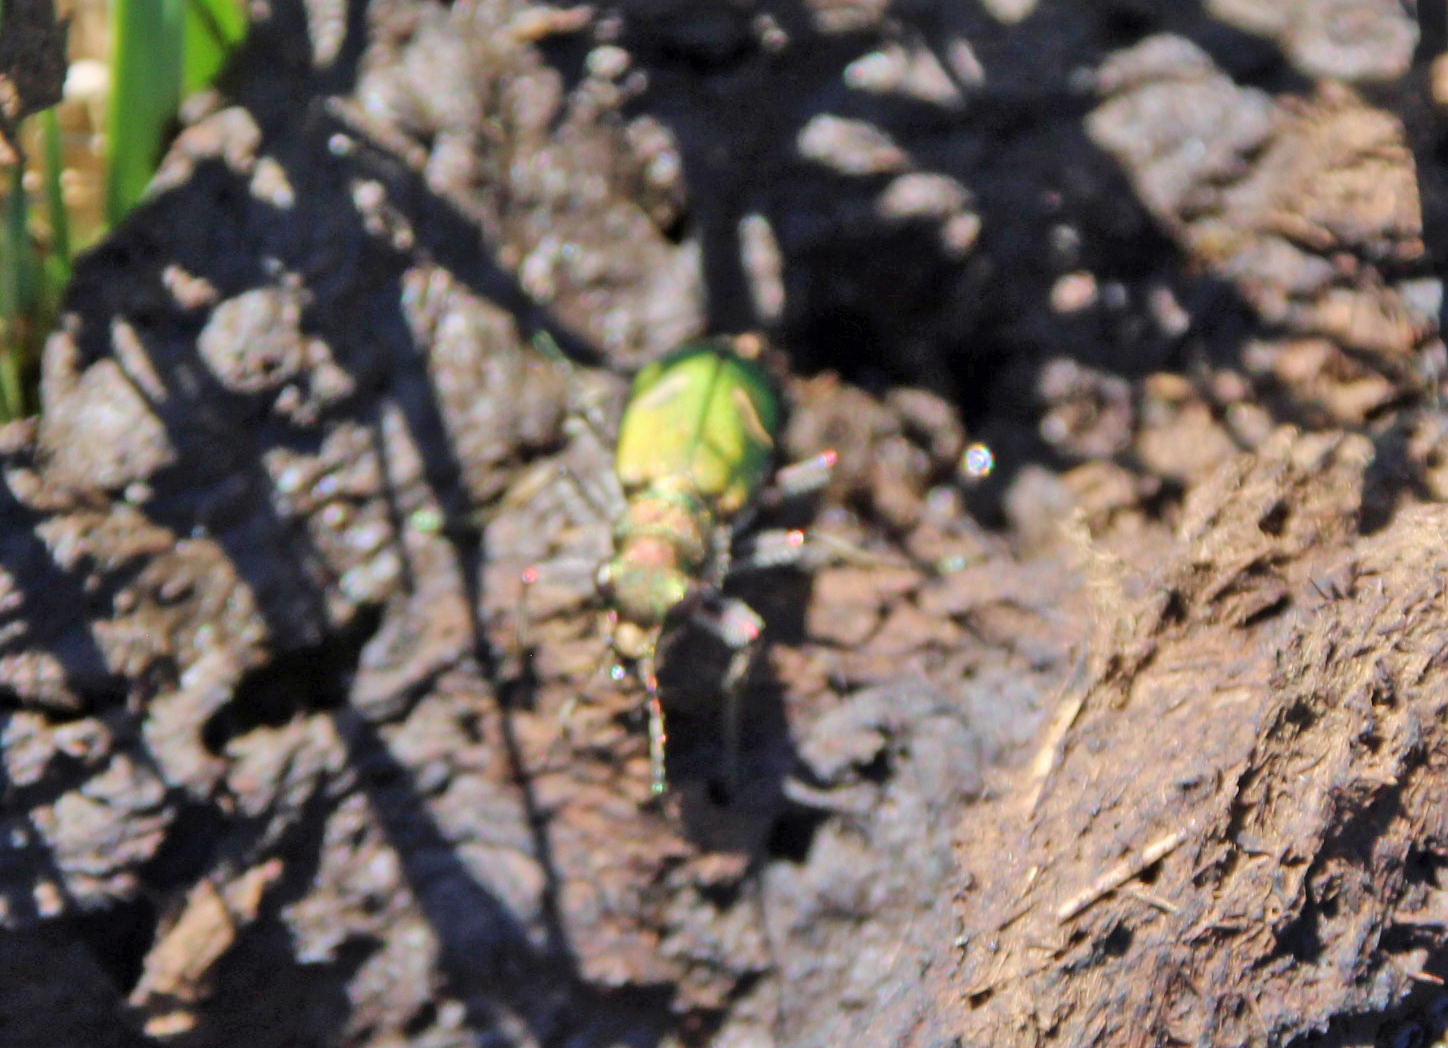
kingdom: Animalia
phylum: Arthropoda
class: Insecta
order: Coleoptera
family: Carabidae
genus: Cicindela
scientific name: Cicindela purpurea
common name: Cow path tiger beetle
